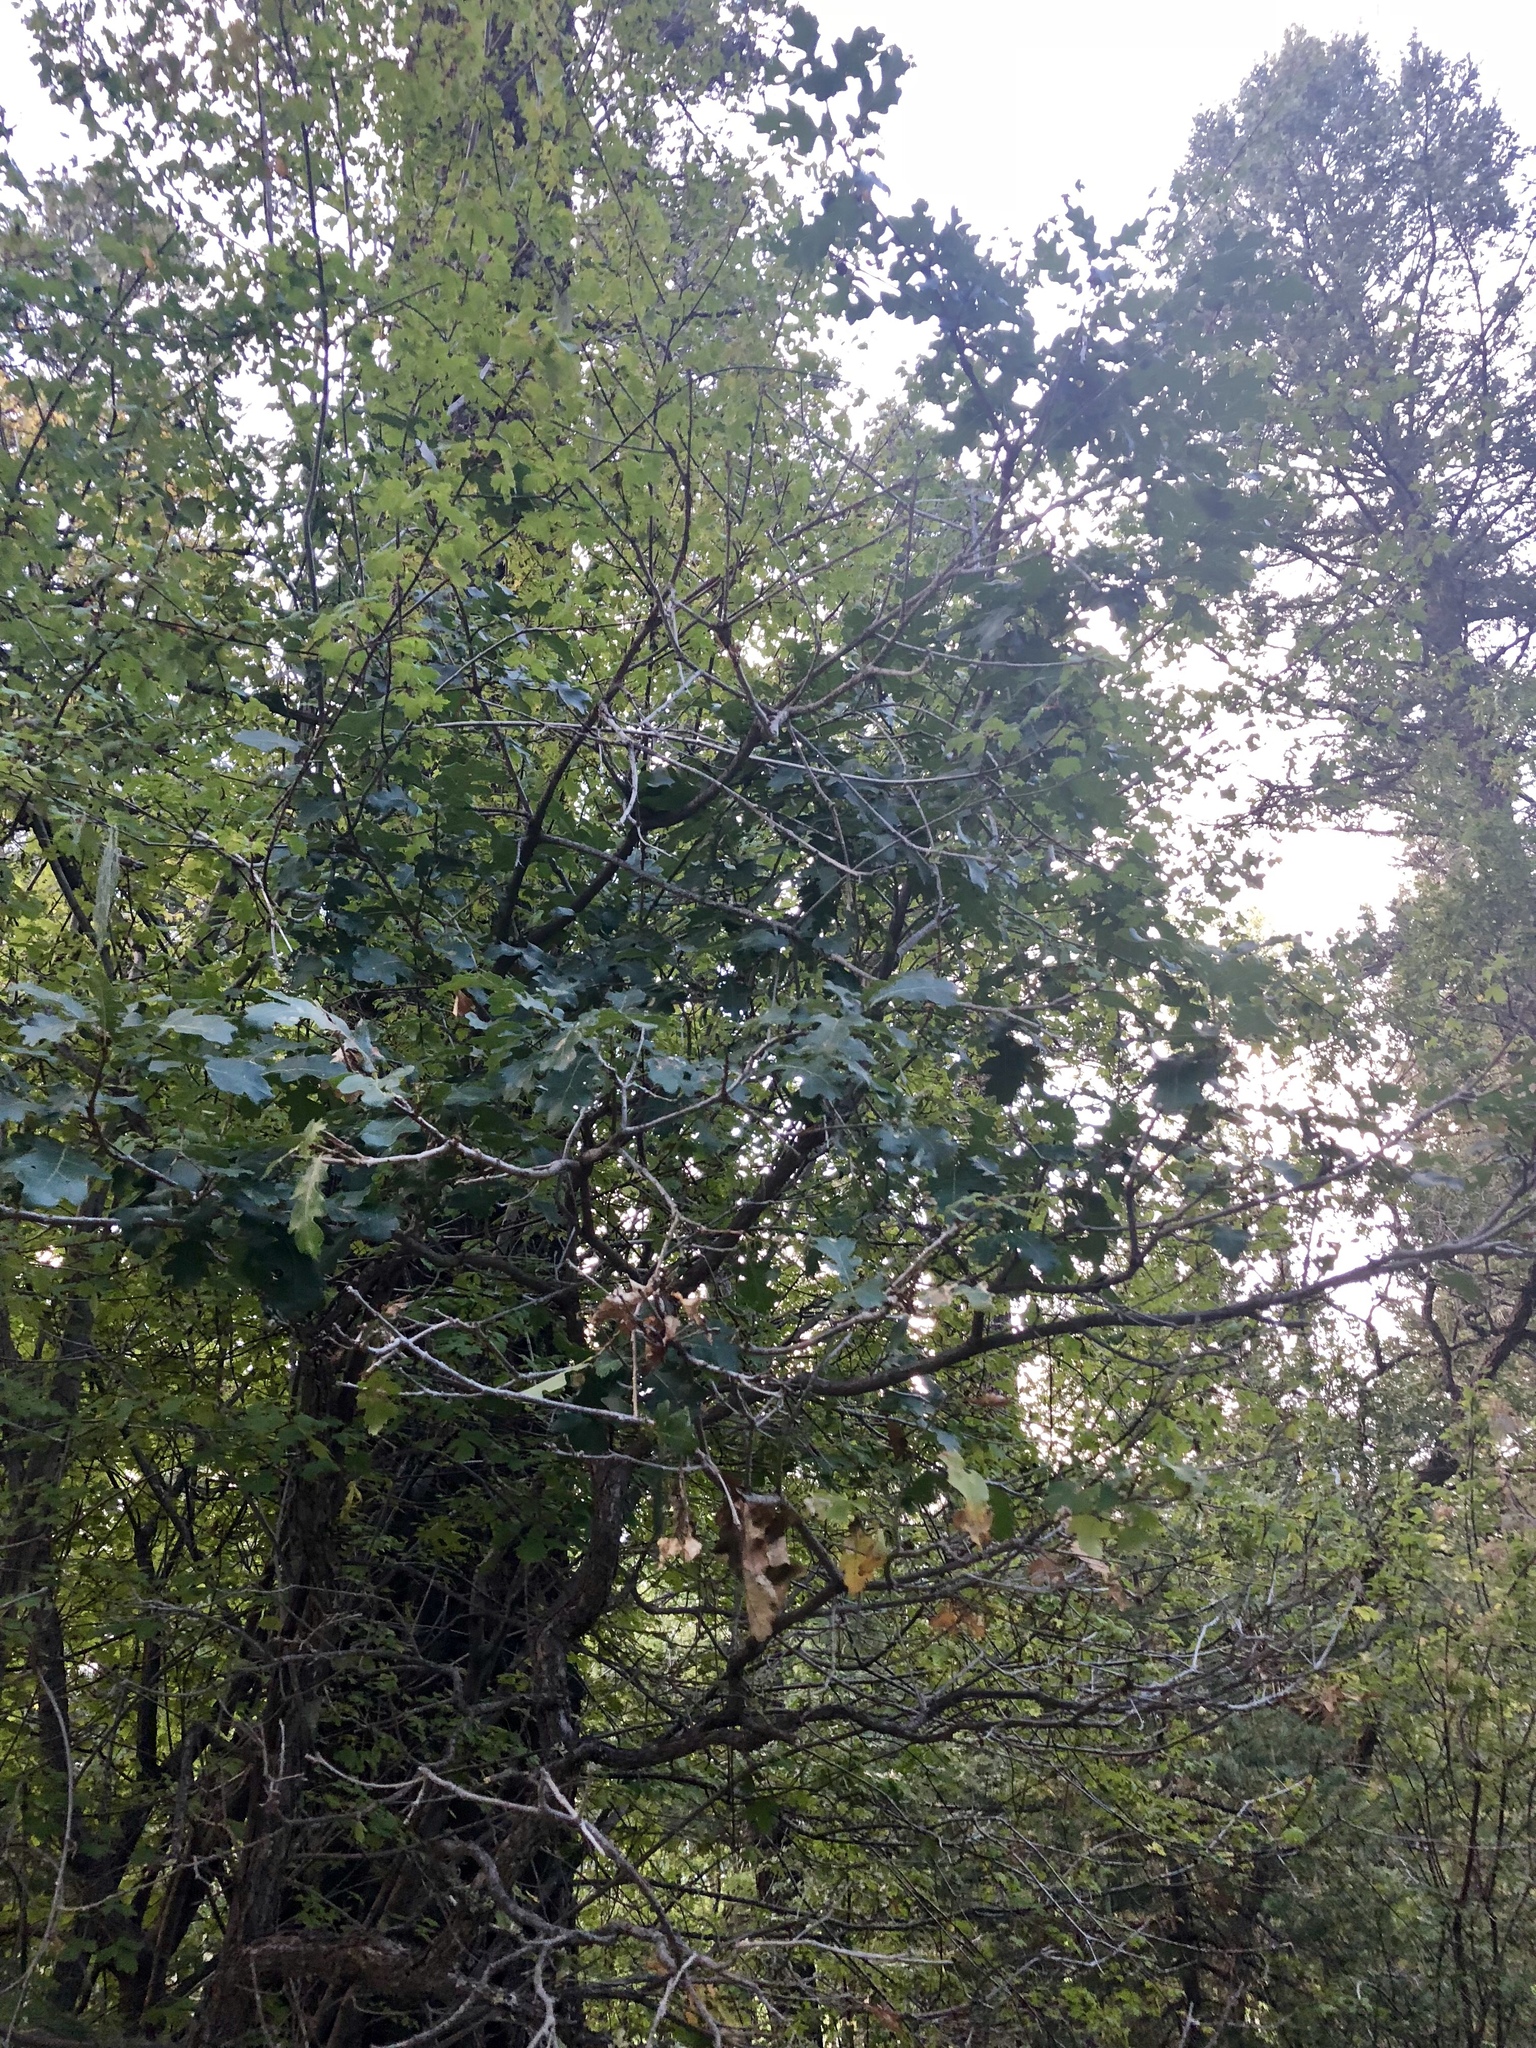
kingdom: Plantae
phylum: Tracheophyta
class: Magnoliopsida
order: Fagales
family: Fagaceae
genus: Quercus
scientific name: Quercus gambelii
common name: Gambel oak
